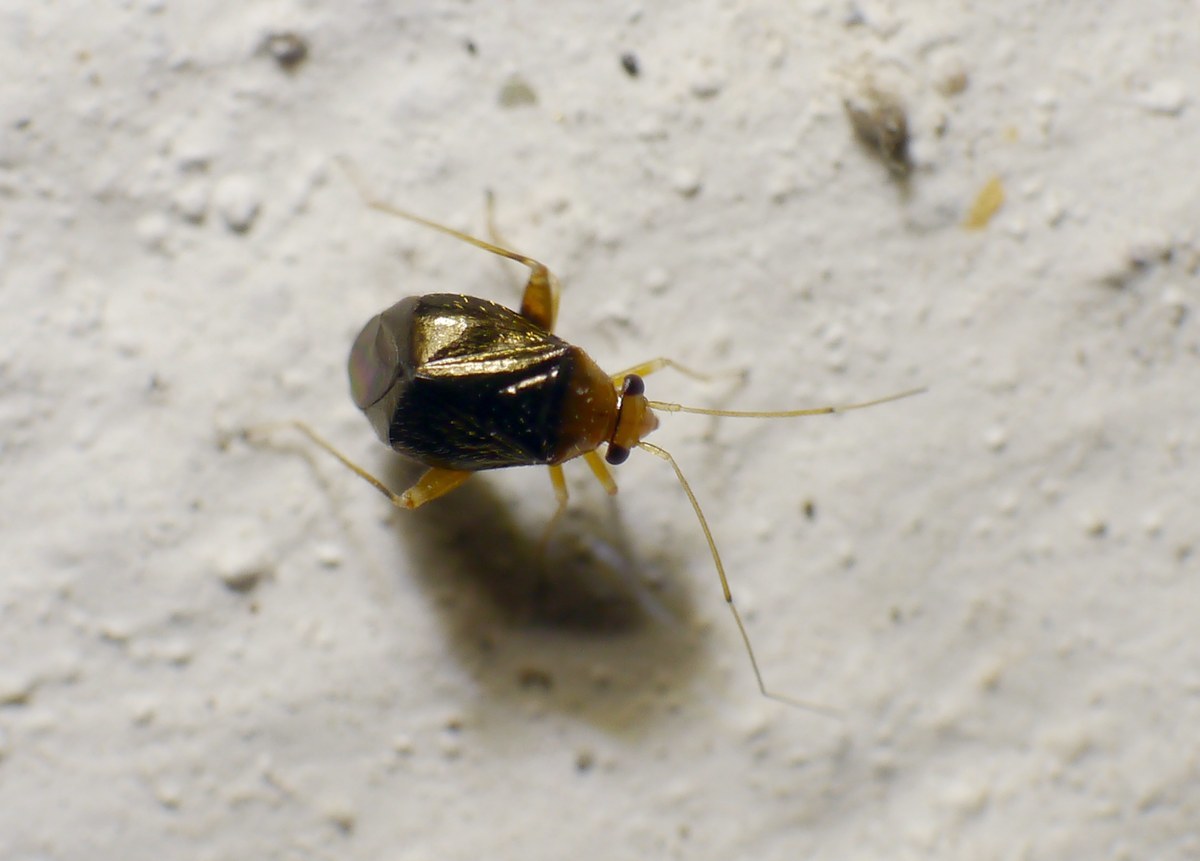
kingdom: Animalia
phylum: Arthropoda
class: Insecta
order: Hemiptera
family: Miridae
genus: Halticus
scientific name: Halticus luteicollis
